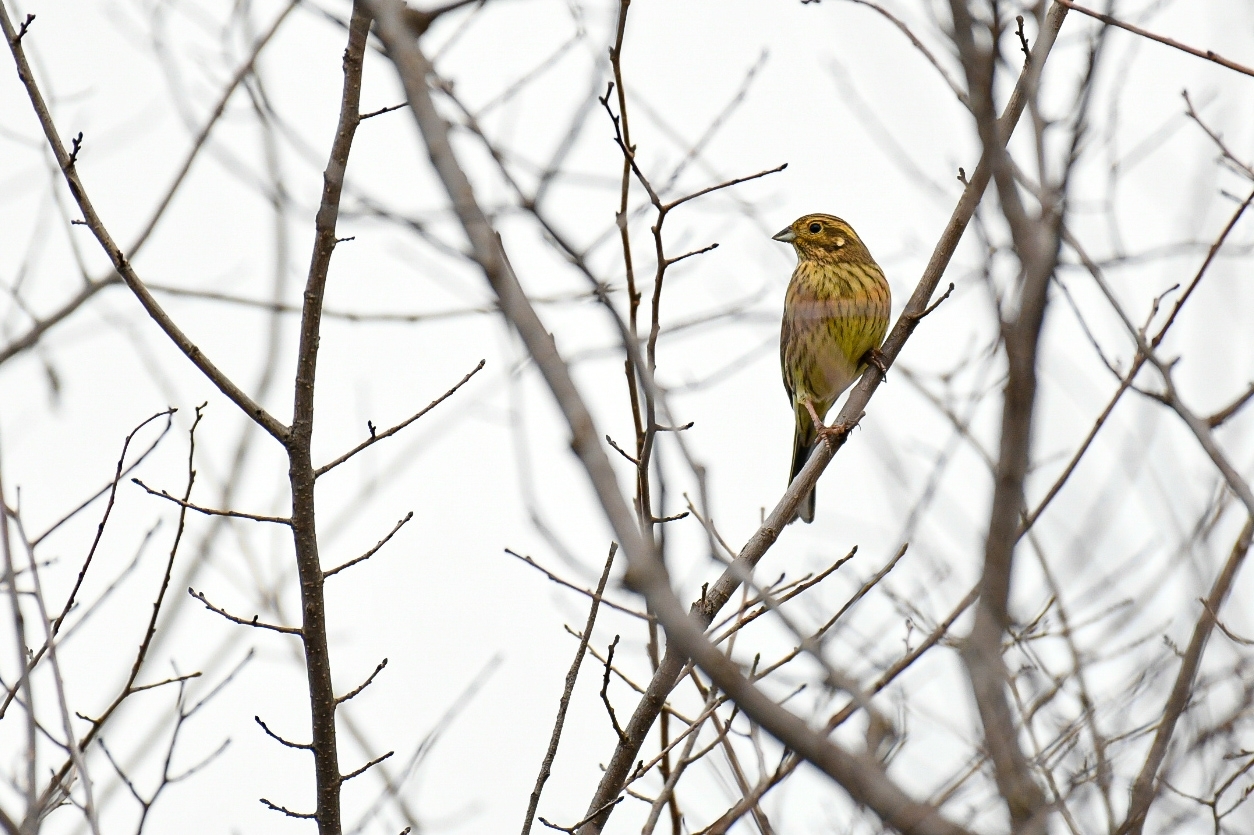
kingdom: Animalia
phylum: Chordata
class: Aves
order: Passeriformes
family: Emberizidae
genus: Emberiza
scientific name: Emberiza cirlus
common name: Cirl bunting
